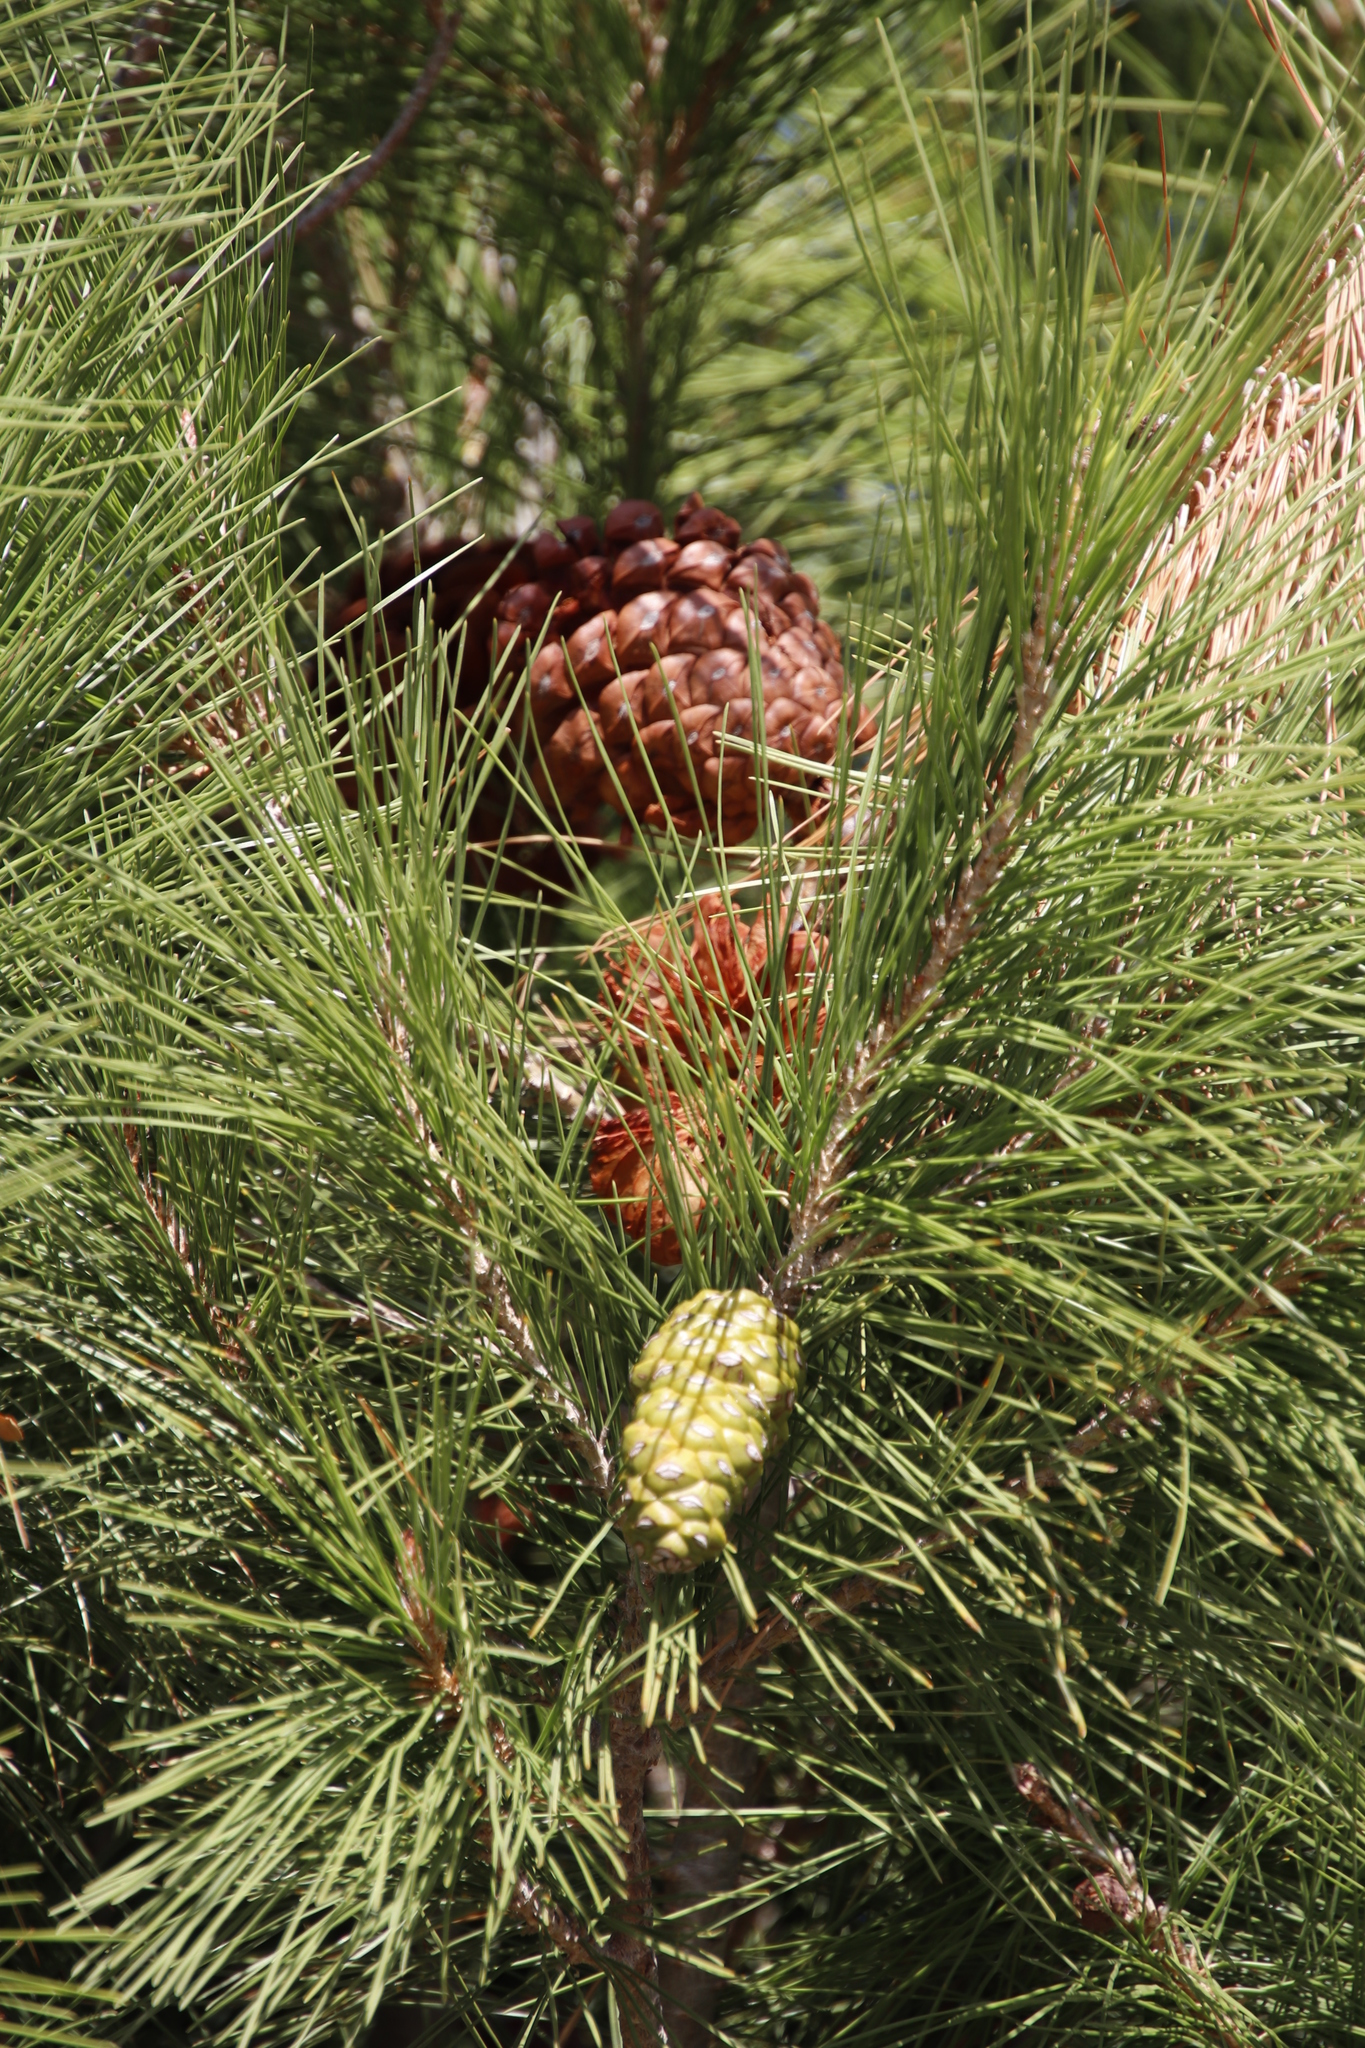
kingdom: Plantae
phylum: Tracheophyta
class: Pinopsida
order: Pinales
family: Pinaceae
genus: Pinus
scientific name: Pinus halepensis
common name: Aleppo pine
